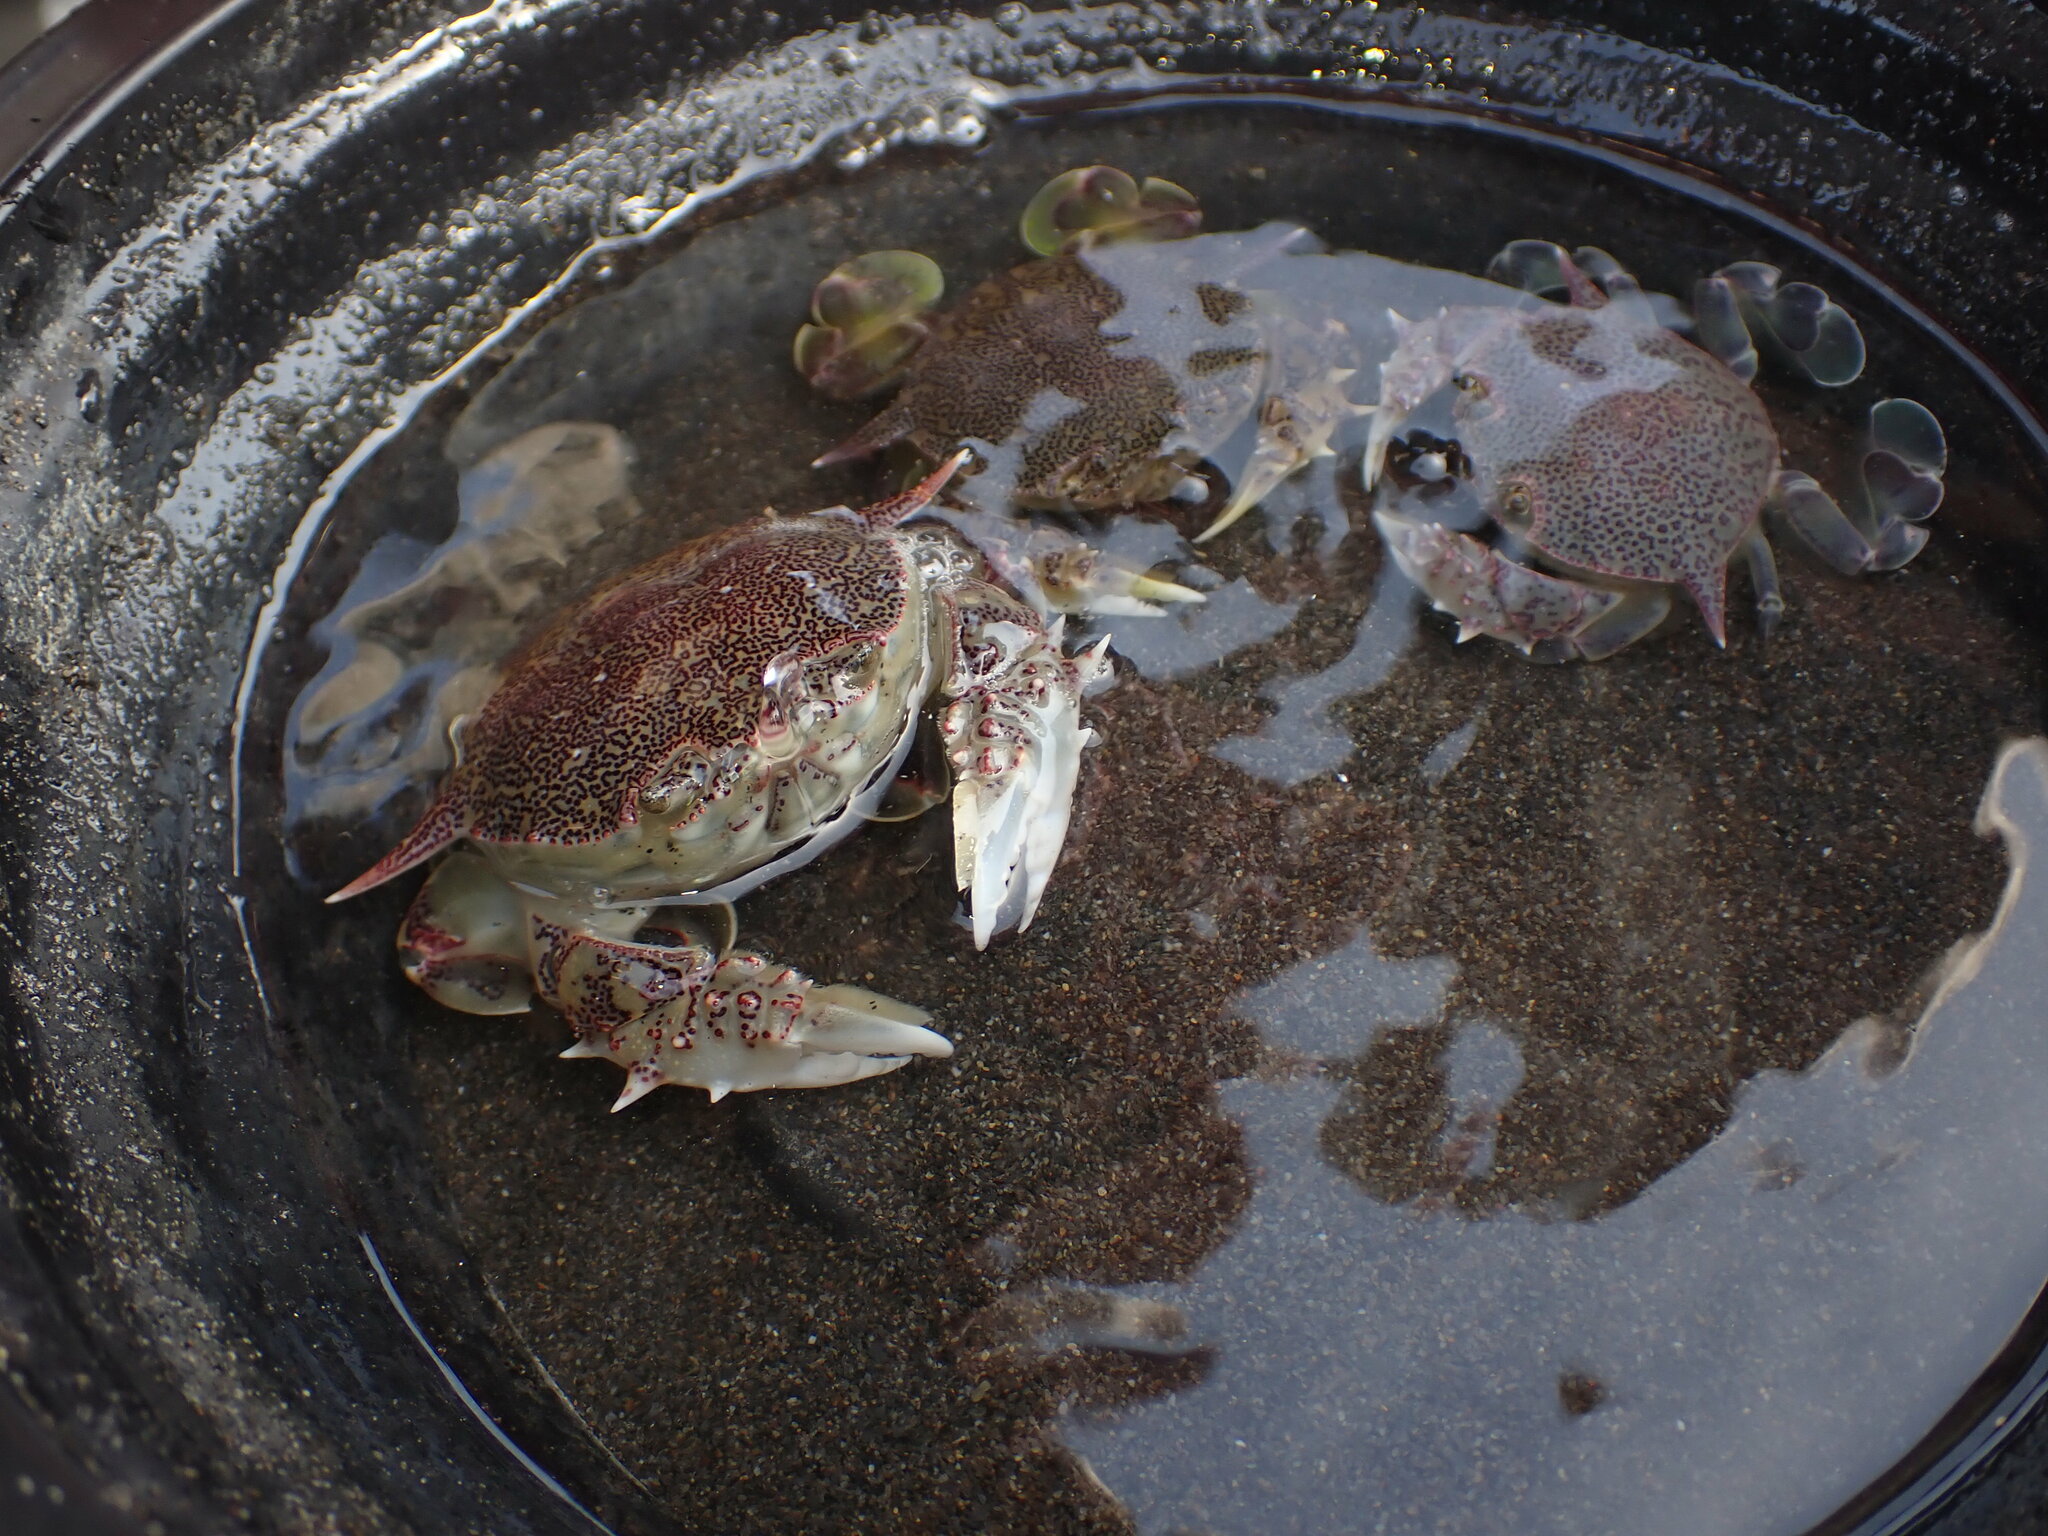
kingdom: Animalia
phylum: Arthropoda
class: Malacostraca
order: Decapoda
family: Matutidae
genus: Matuta
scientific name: Matuta victor
